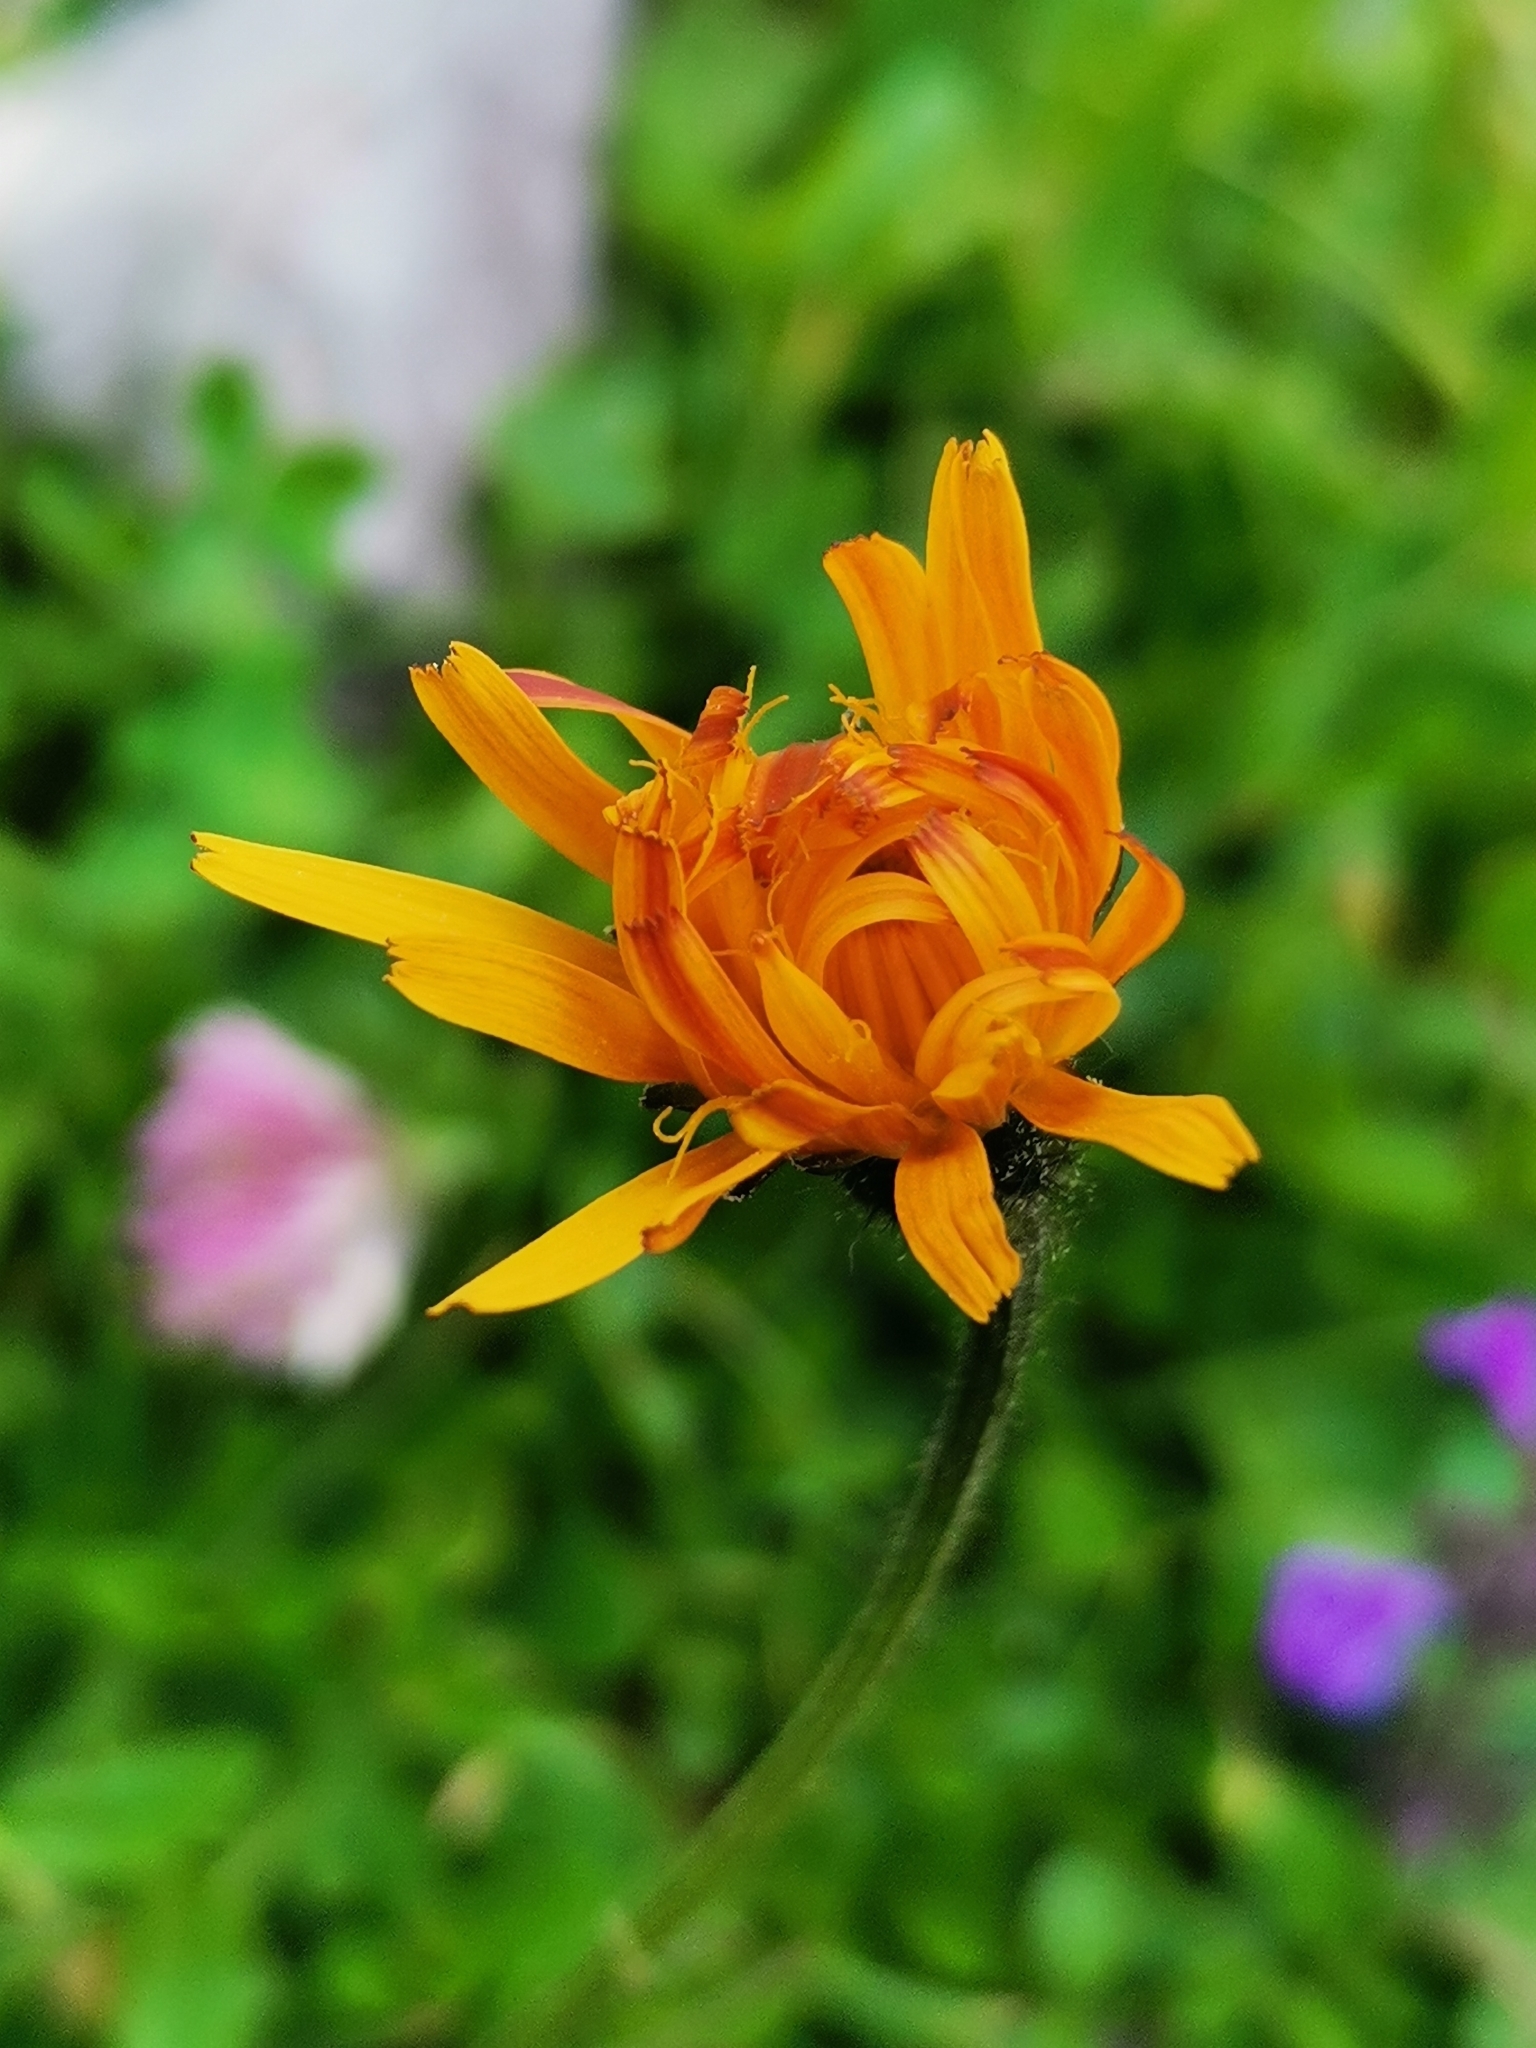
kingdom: Plantae
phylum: Tracheophyta
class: Magnoliopsida
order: Asterales
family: Asteraceae
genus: Crepis
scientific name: Crepis aurea
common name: Golden hawk's-beard
